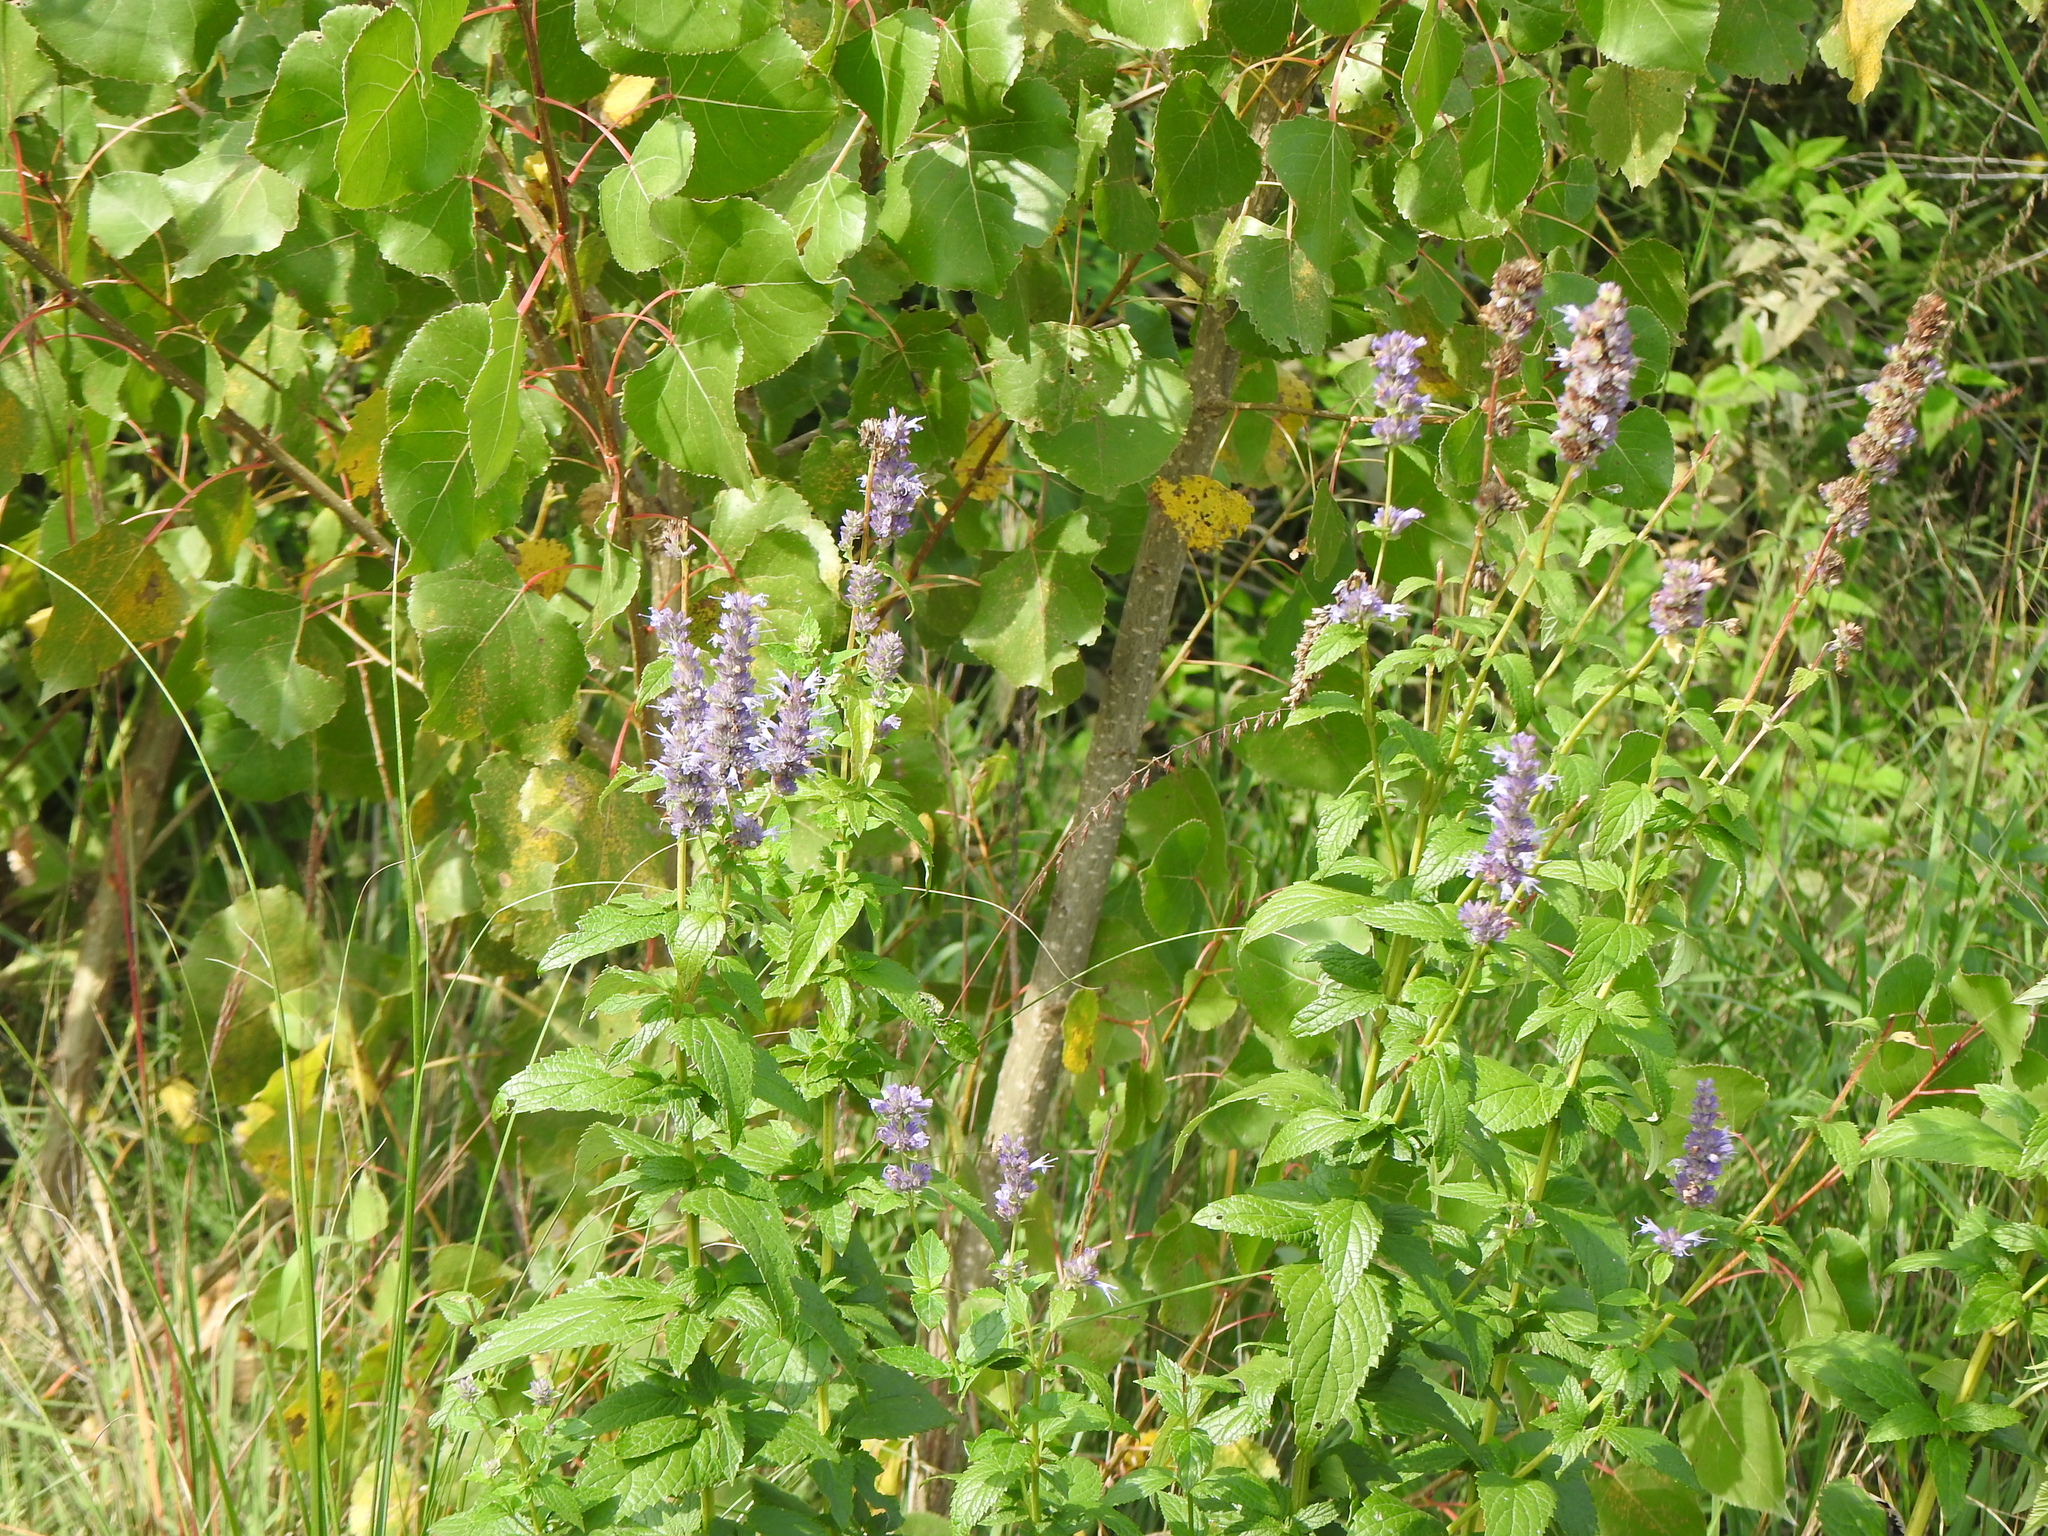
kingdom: Plantae
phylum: Tracheophyta
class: Magnoliopsida
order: Lamiales
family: Lamiaceae
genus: Agastache
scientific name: Agastache foeniculum
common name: Anise hyssop
